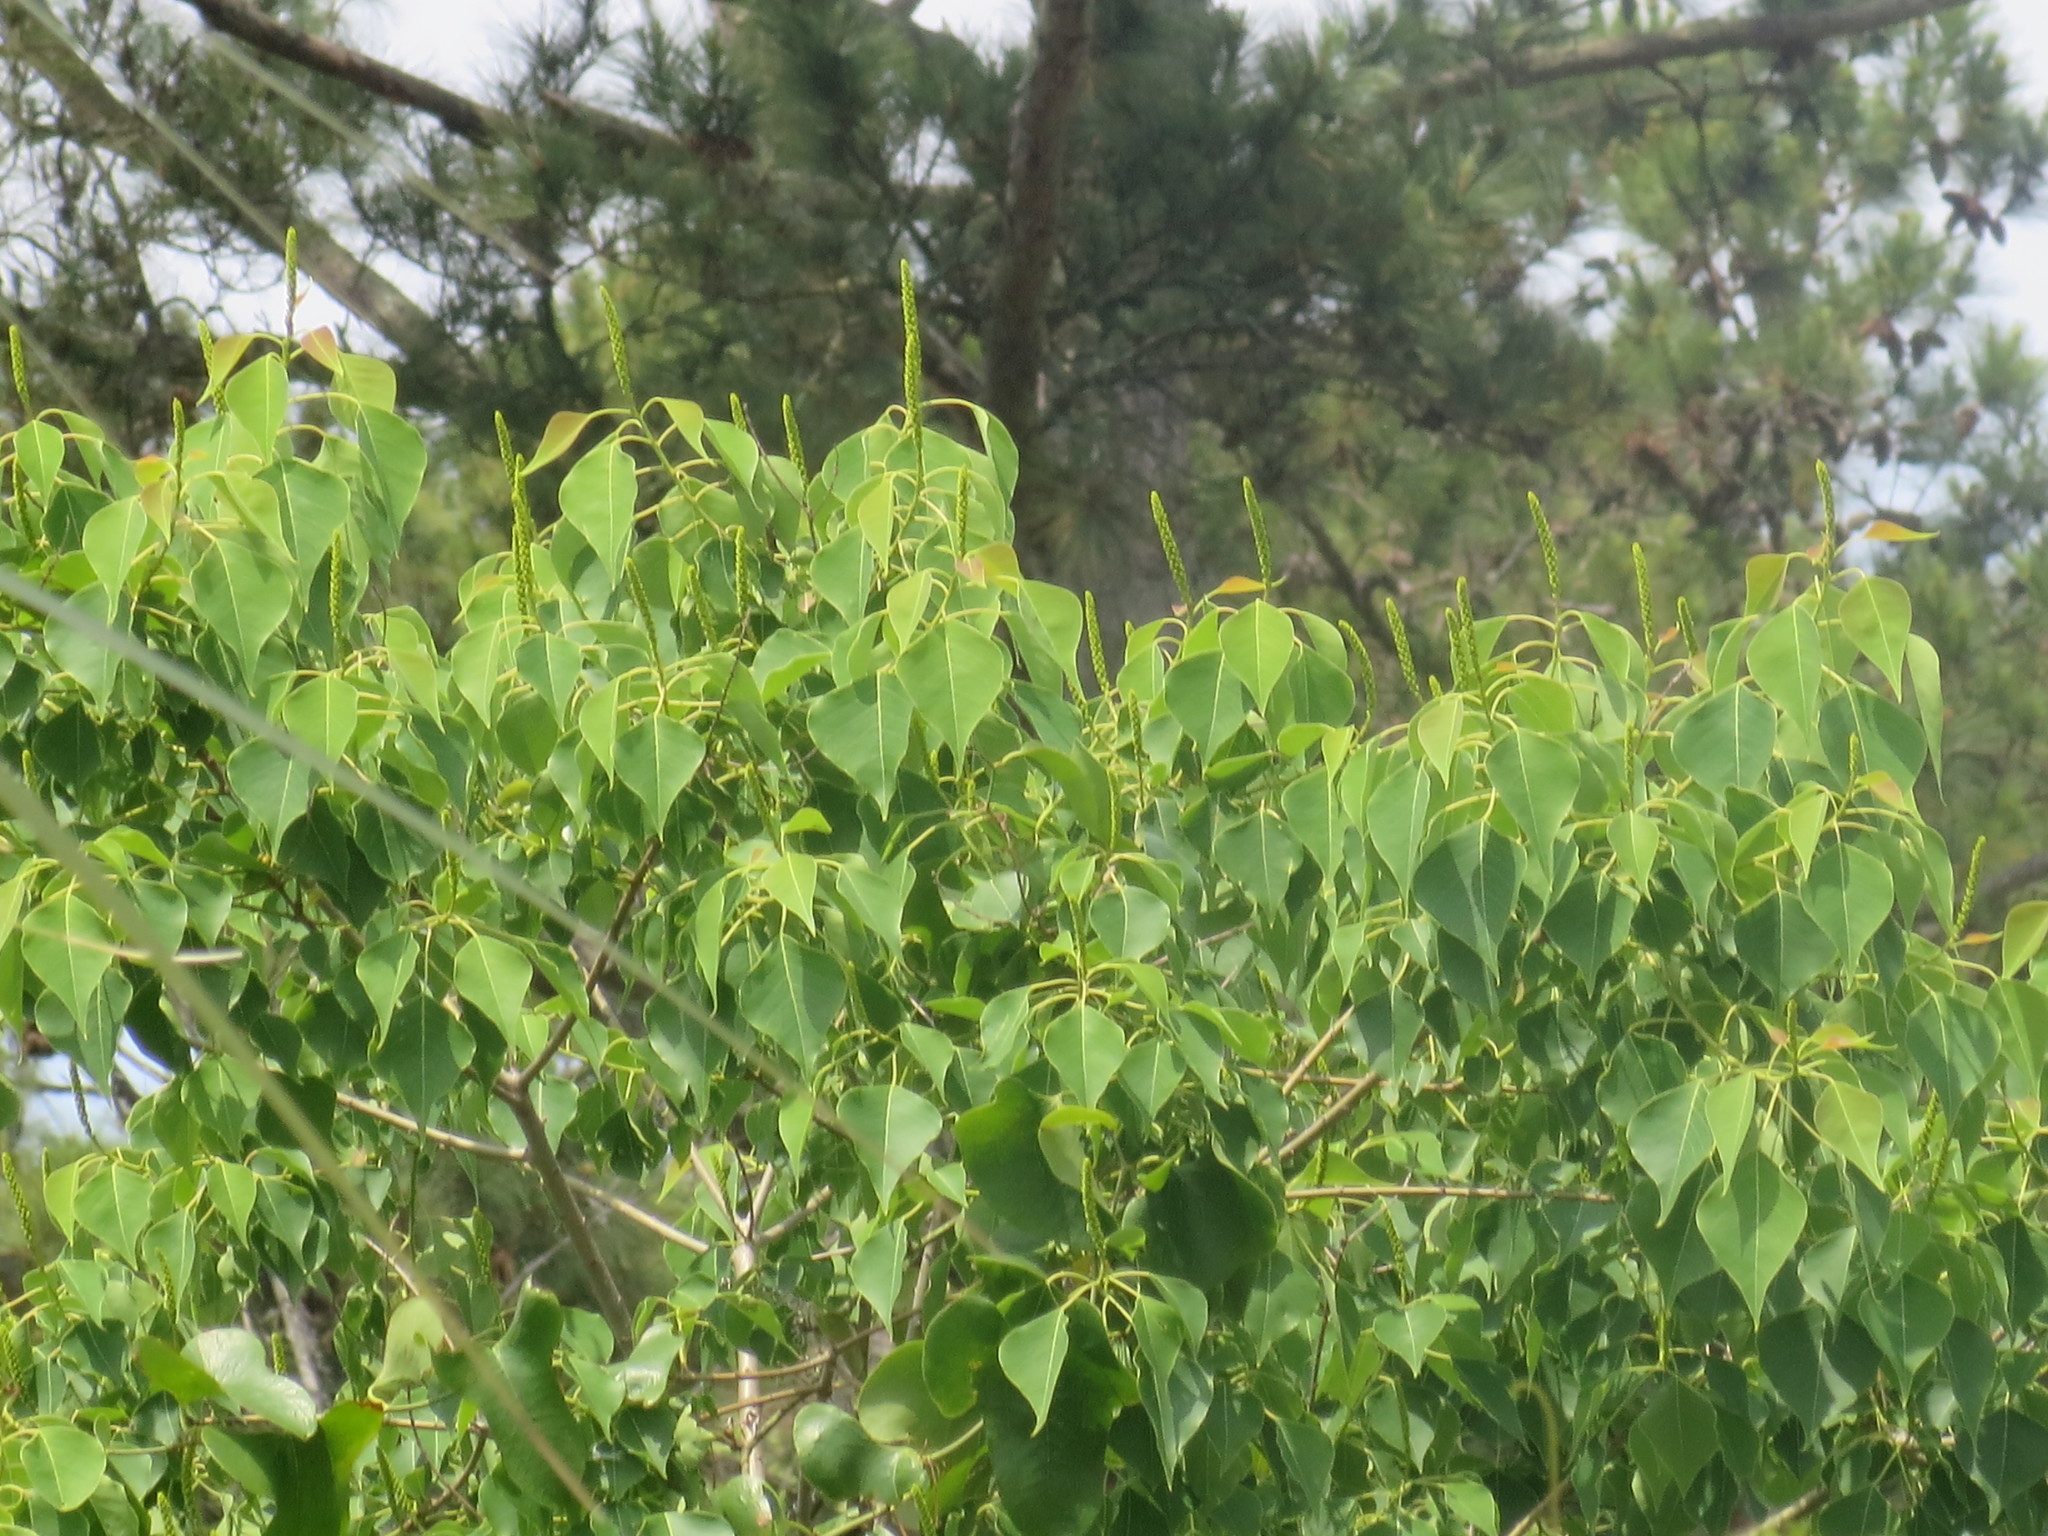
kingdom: Plantae
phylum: Tracheophyta
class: Magnoliopsida
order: Malpighiales
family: Euphorbiaceae
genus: Triadica
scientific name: Triadica sebifera
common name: Chinese tallow
